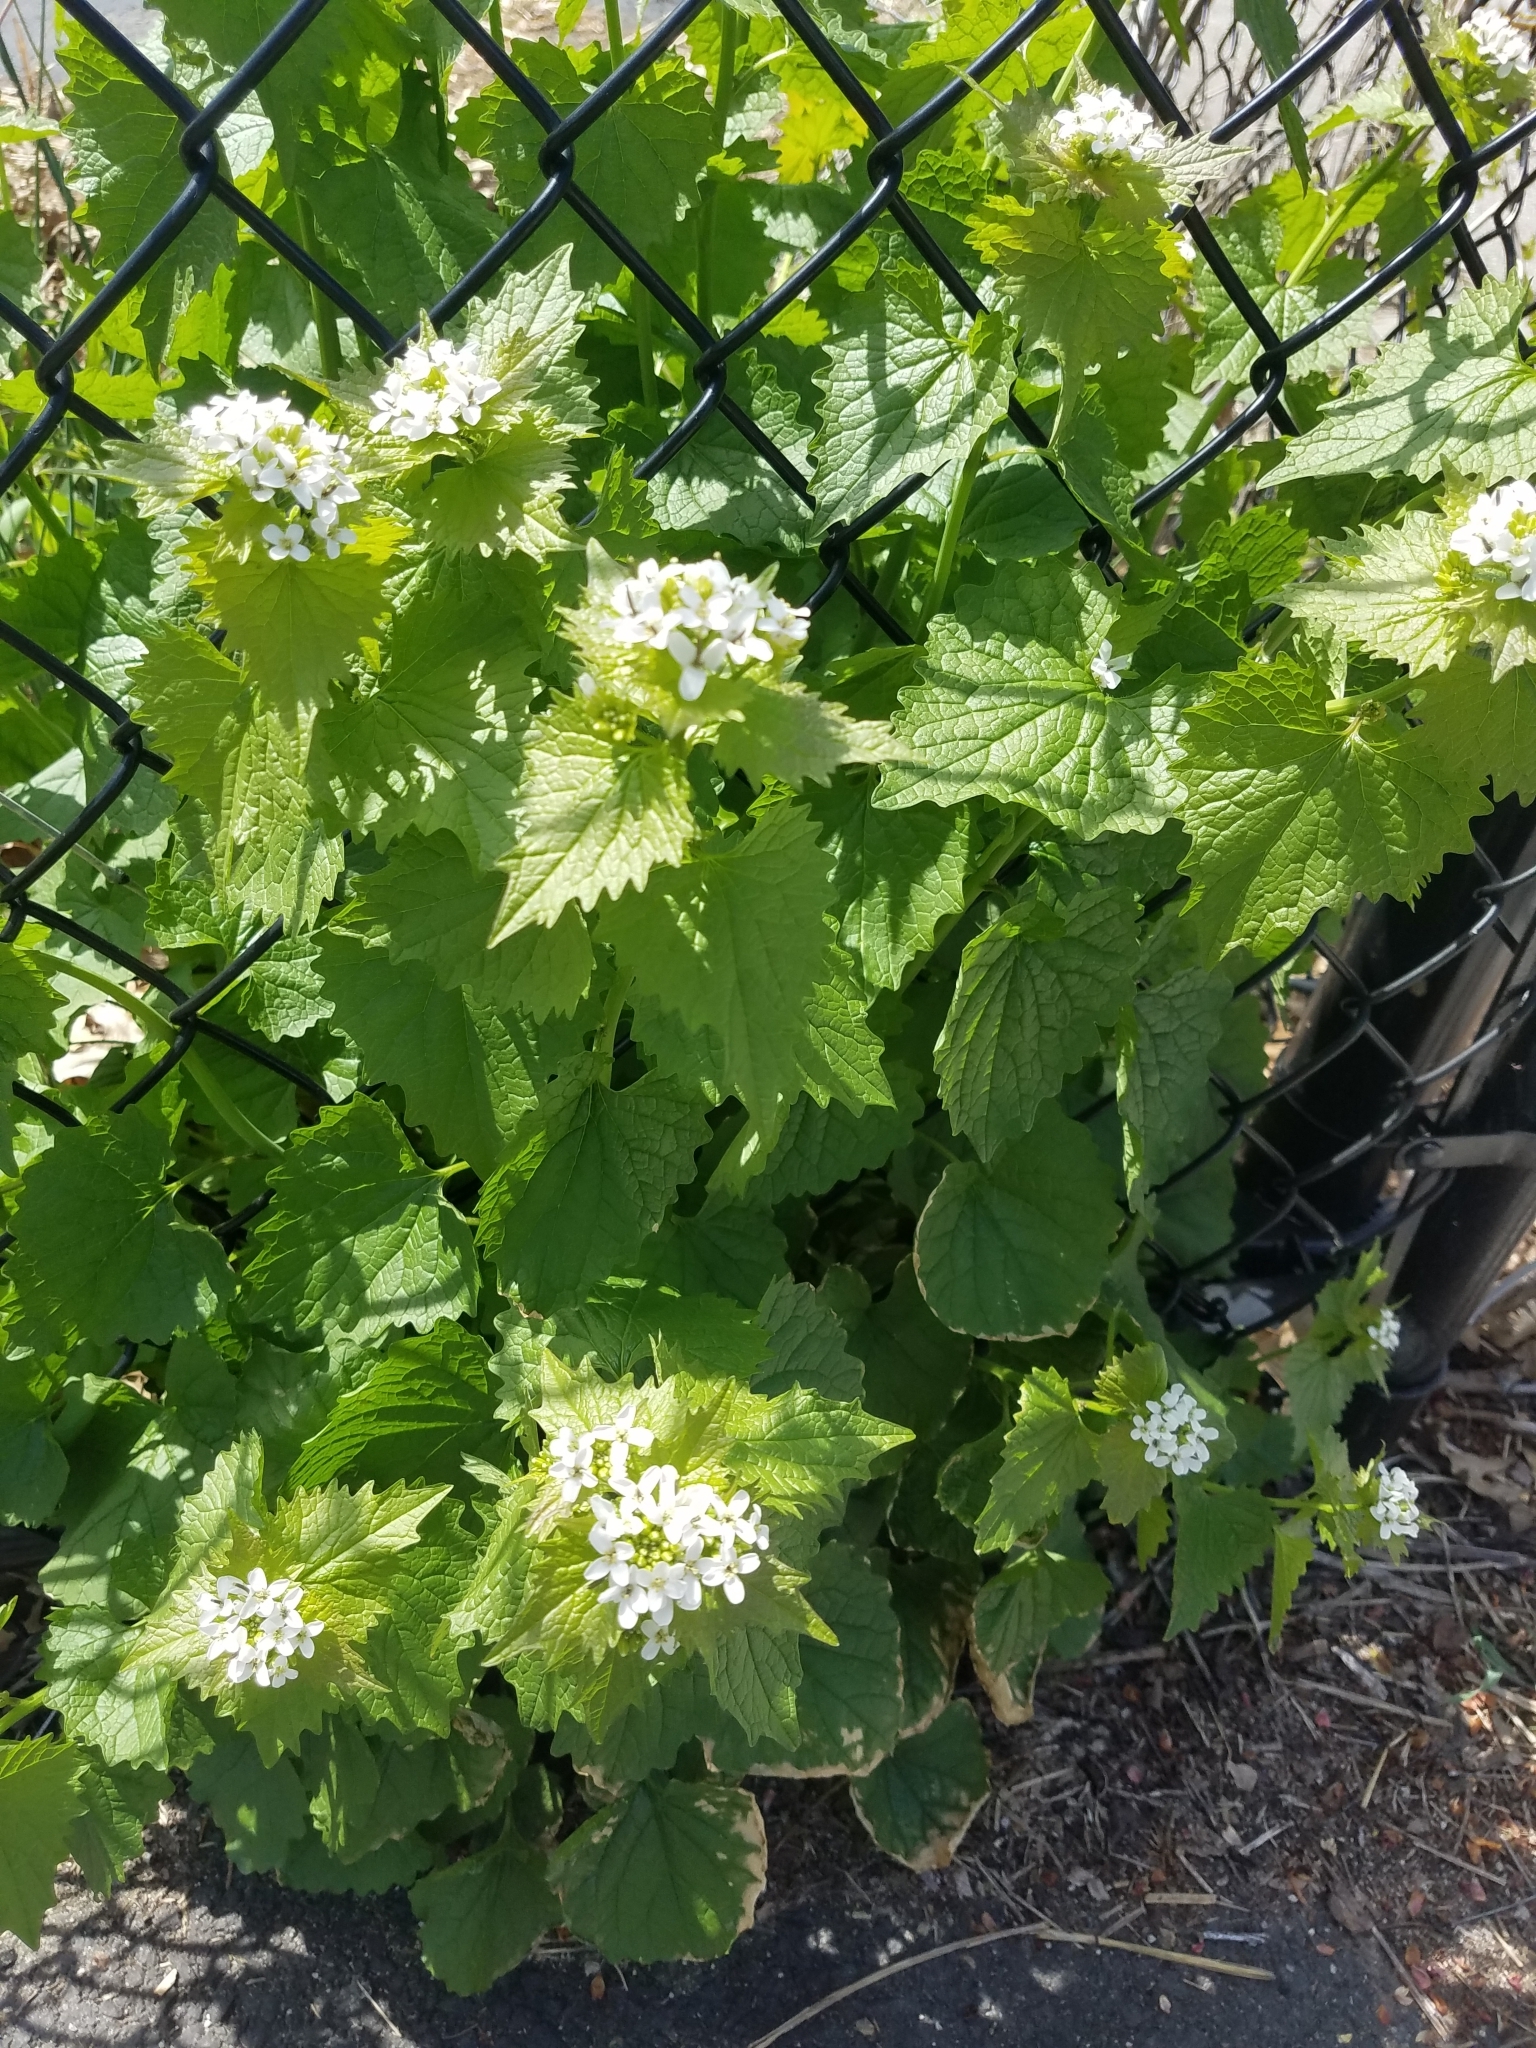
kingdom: Plantae
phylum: Tracheophyta
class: Magnoliopsida
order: Brassicales
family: Brassicaceae
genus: Alliaria
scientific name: Alliaria petiolata
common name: Garlic mustard
